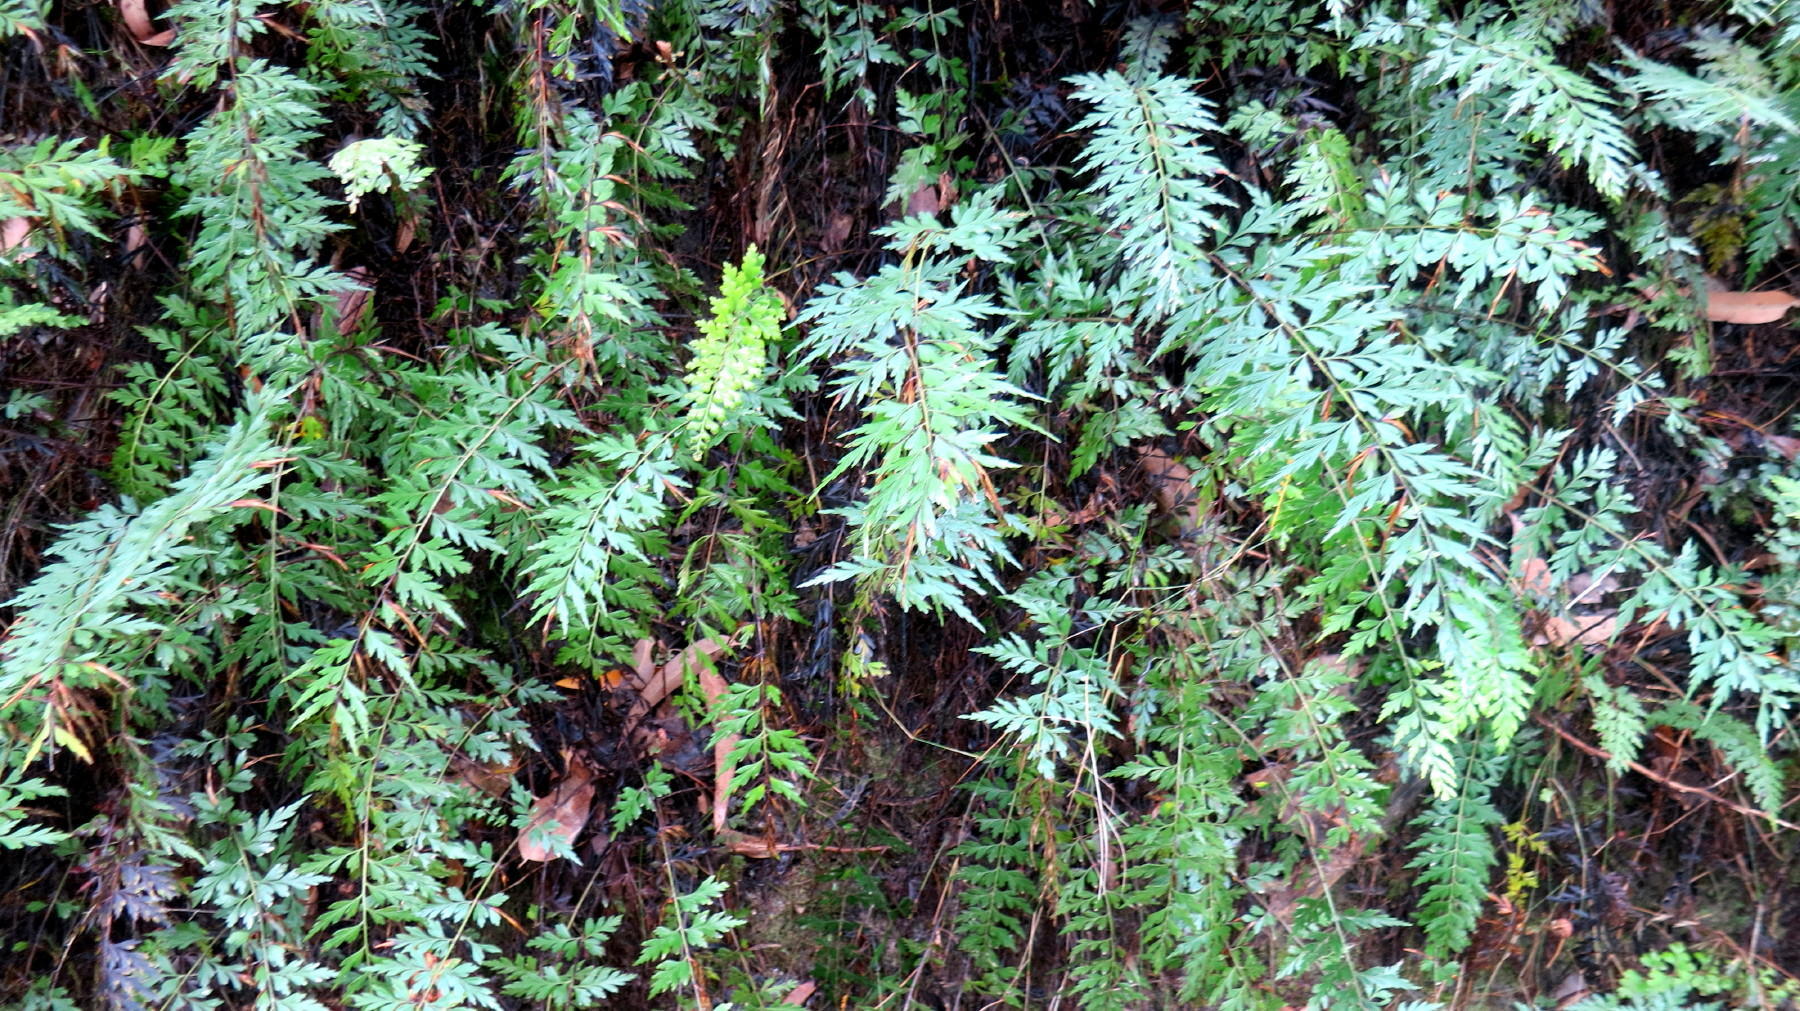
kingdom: Plantae
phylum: Tracheophyta
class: Polypodiopsida
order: Polypodiales
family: Aspleniaceae
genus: Asplenium
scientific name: Asplenium aethiopicum
